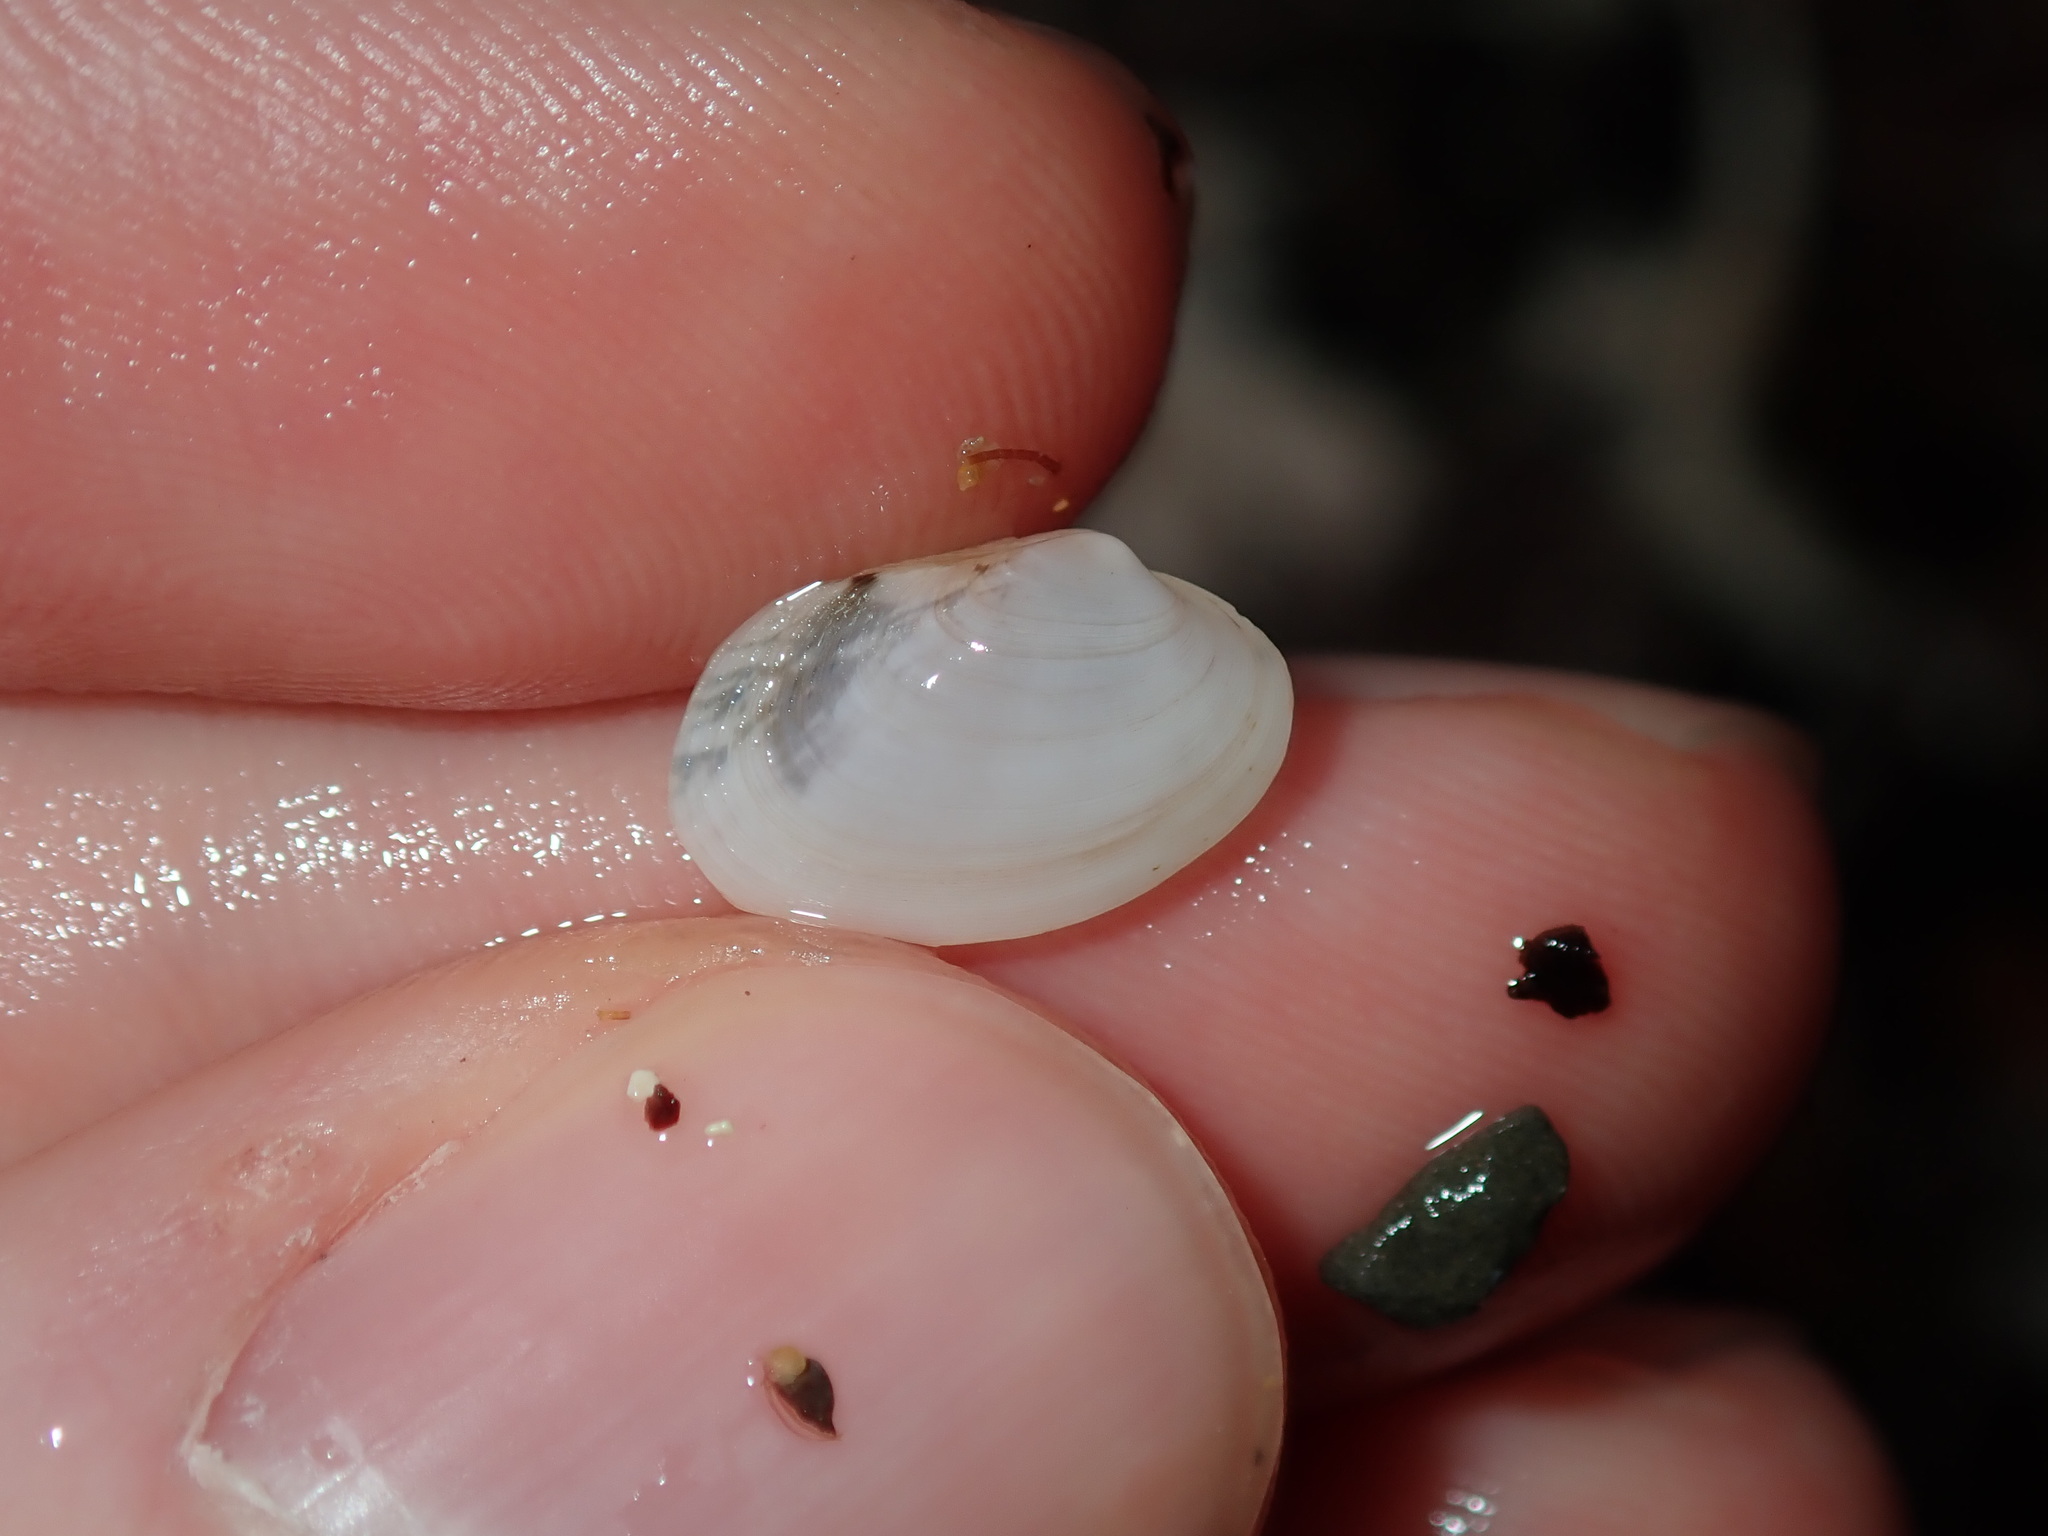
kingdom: Animalia
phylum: Mollusca
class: Bivalvia
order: Venerida
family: Veneridae
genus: Venerupis
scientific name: Venerupis anomala
